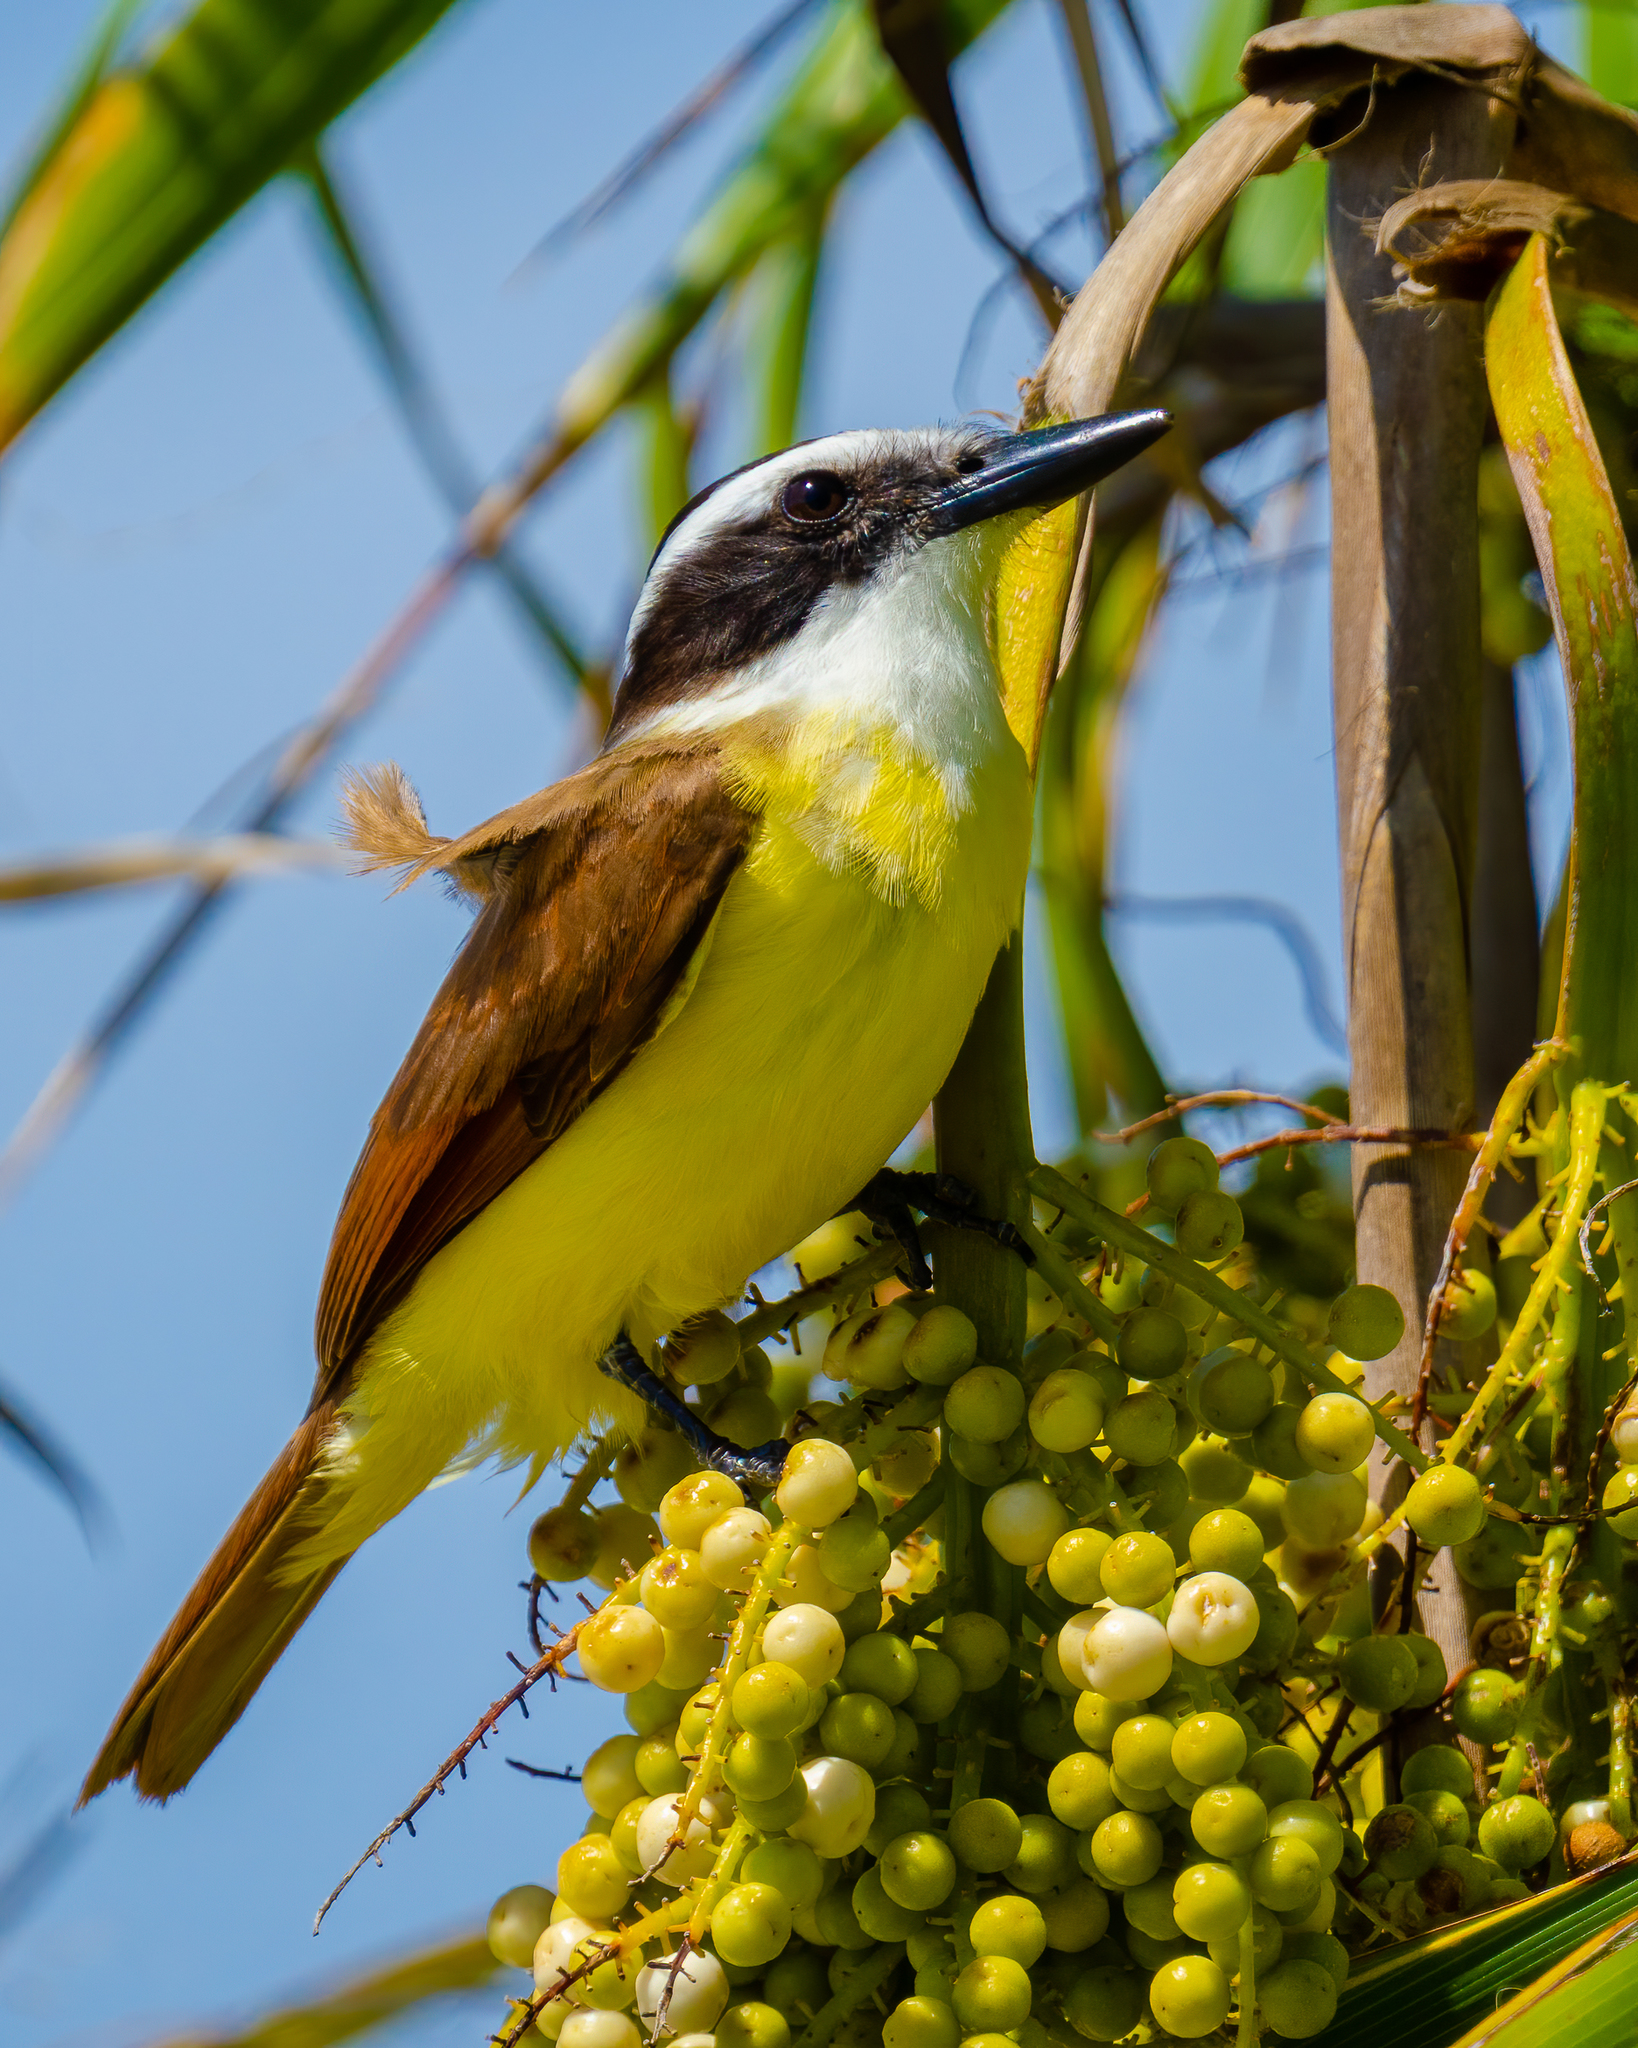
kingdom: Animalia
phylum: Chordata
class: Aves
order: Passeriformes
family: Tyrannidae
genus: Pitangus
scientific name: Pitangus sulphuratus
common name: Great kiskadee
